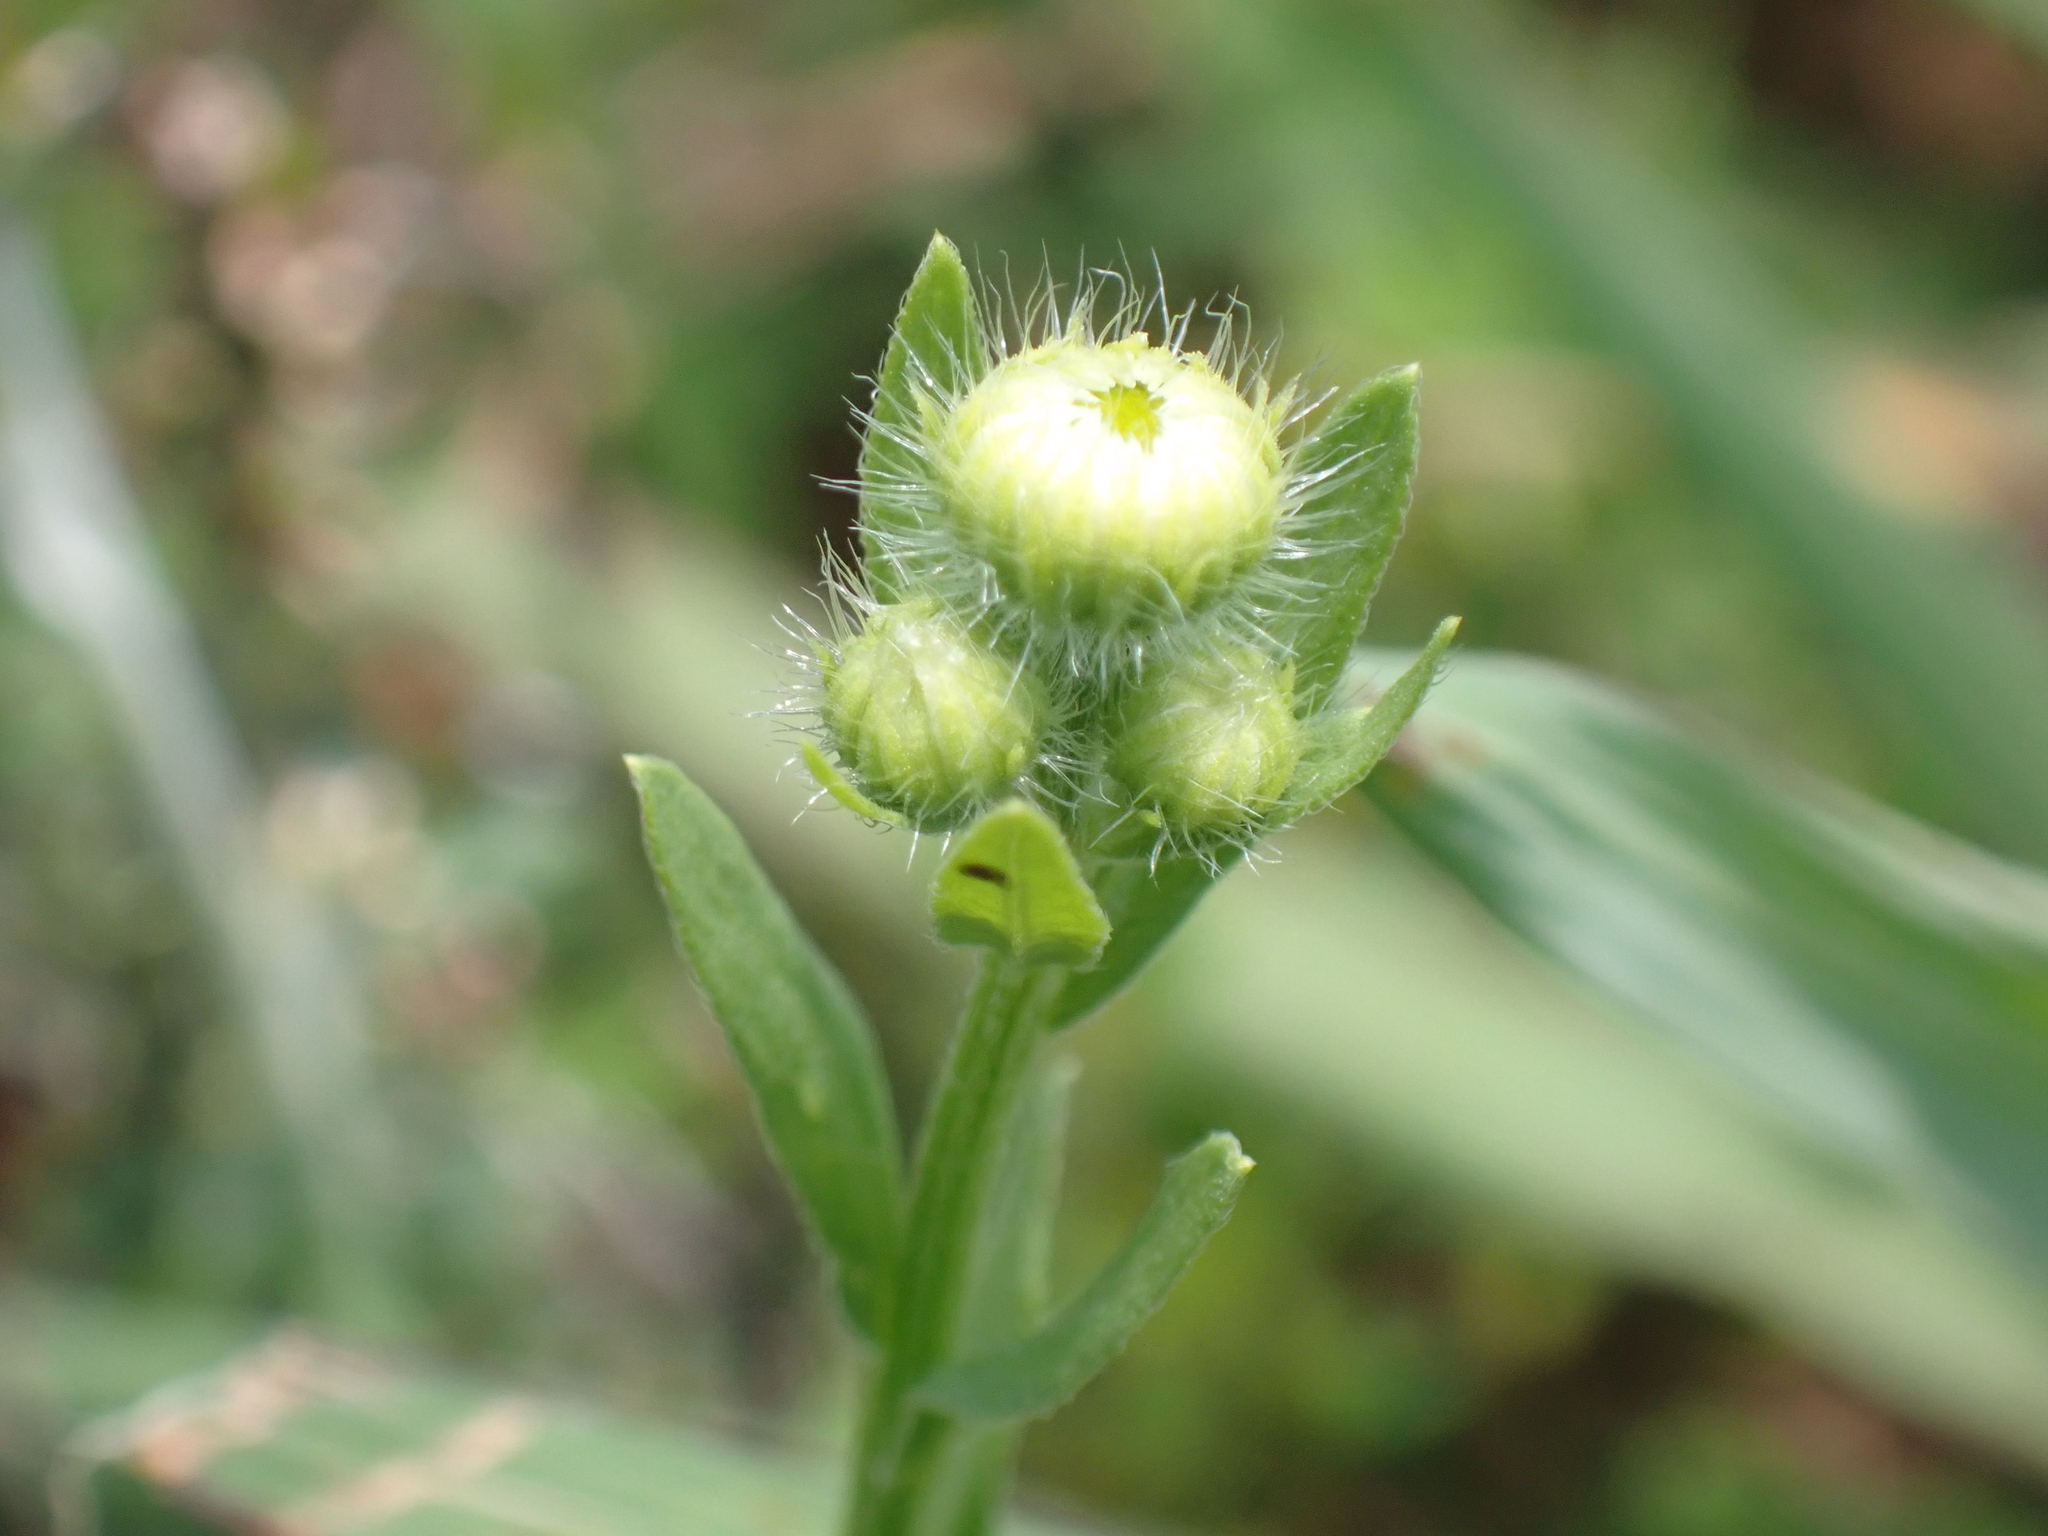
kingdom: Plantae
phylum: Tracheophyta
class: Magnoliopsida
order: Asterales
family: Asteraceae
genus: Erigeron
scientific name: Erigeron strigosus
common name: Common eastern fleabane
